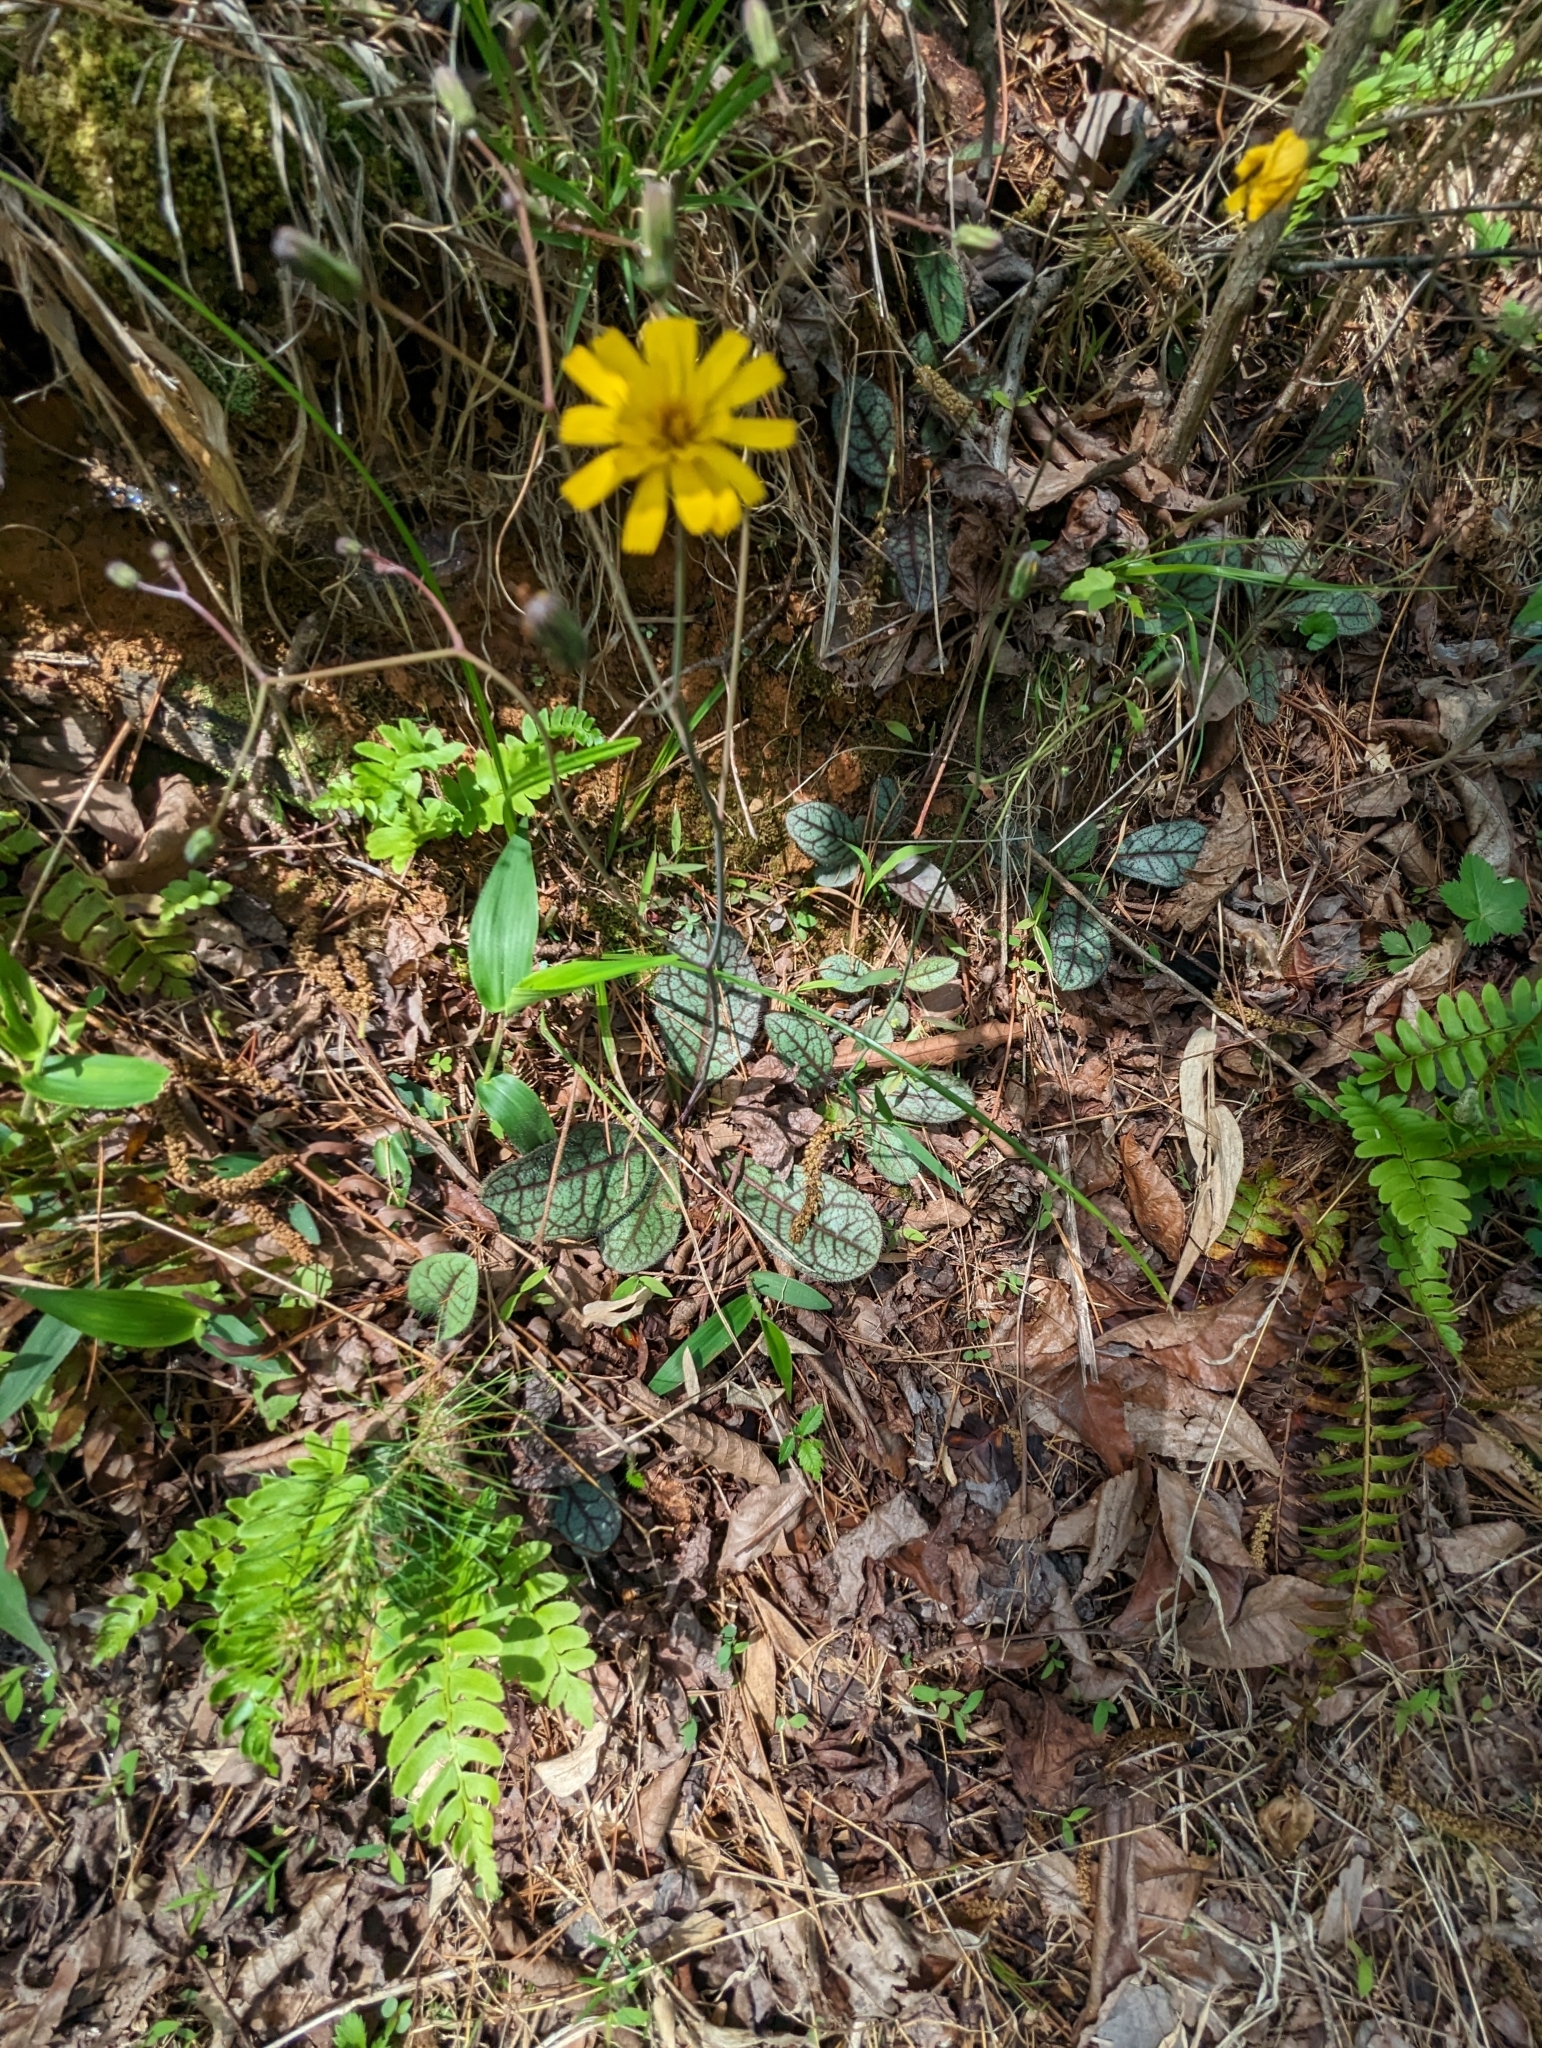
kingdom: Plantae
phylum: Tracheophyta
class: Magnoliopsida
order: Asterales
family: Asteraceae
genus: Hieracium
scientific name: Hieracium venosum
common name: Rattlesnake hawkweed
